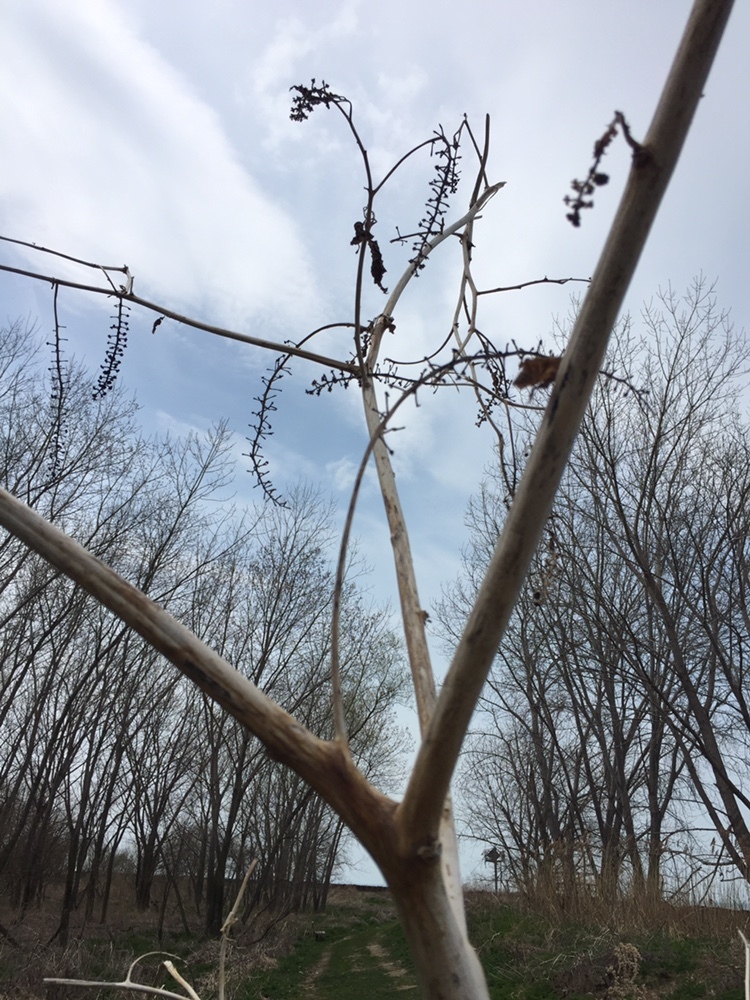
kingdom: Plantae
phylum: Tracheophyta
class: Magnoliopsida
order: Caryophyllales
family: Phytolaccaceae
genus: Phytolacca
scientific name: Phytolacca americana
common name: American pokeweed
